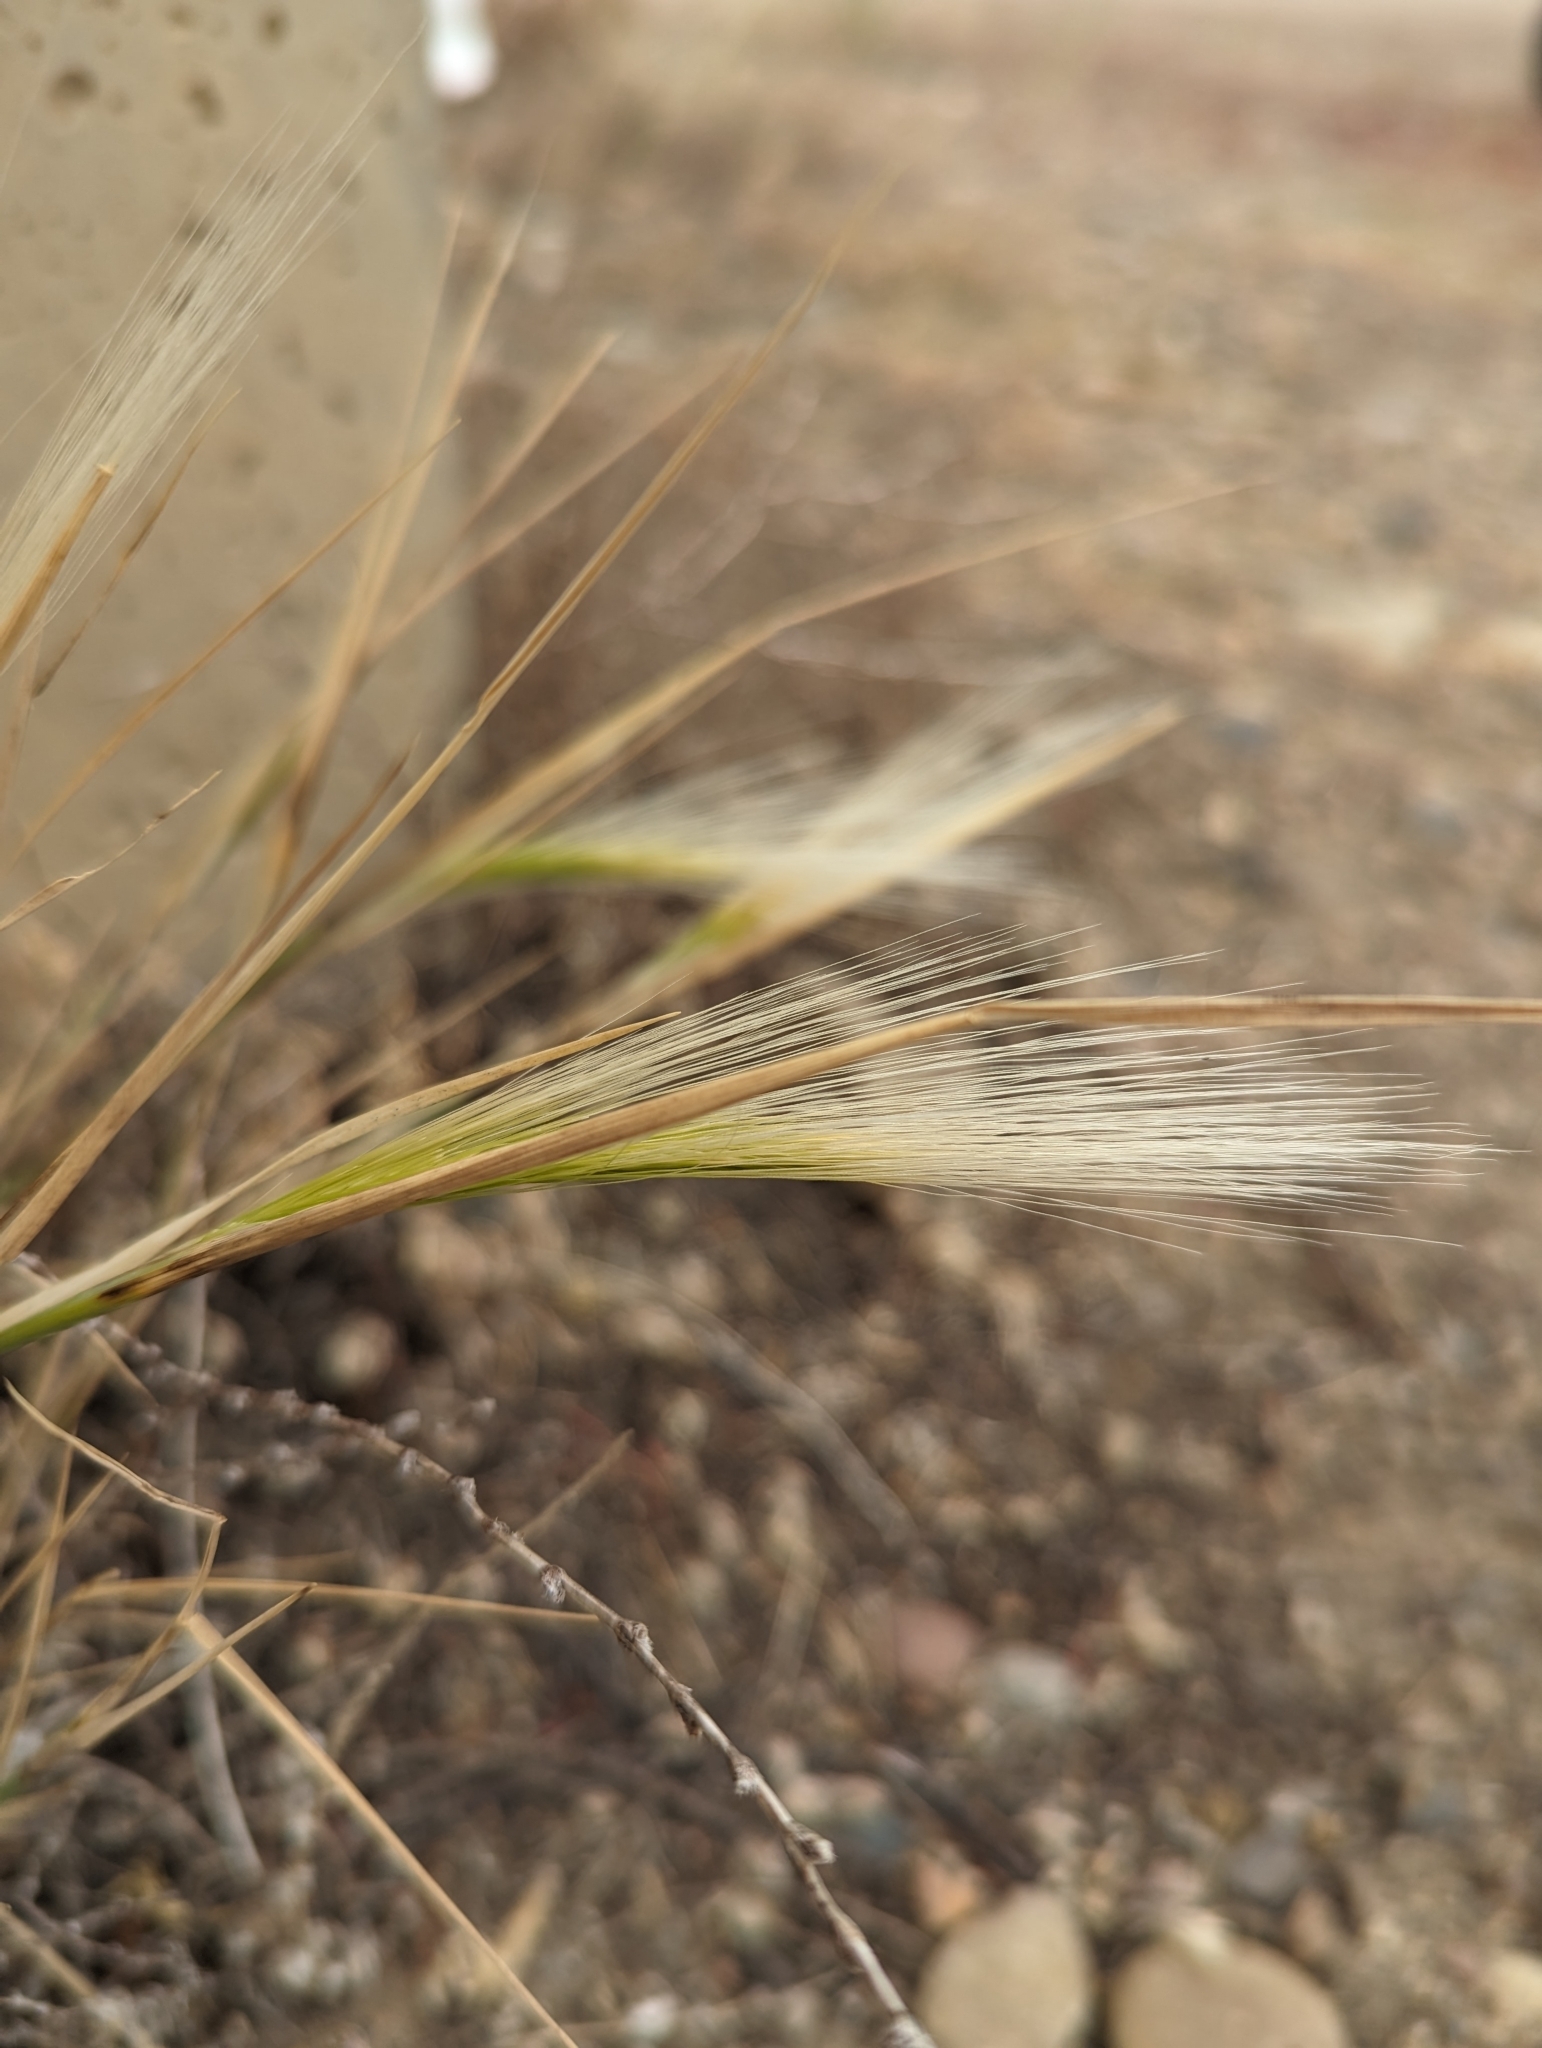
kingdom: Plantae
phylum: Tracheophyta
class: Liliopsida
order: Poales
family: Poaceae
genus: Hordeum
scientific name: Hordeum jubatum
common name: Foxtail barley
